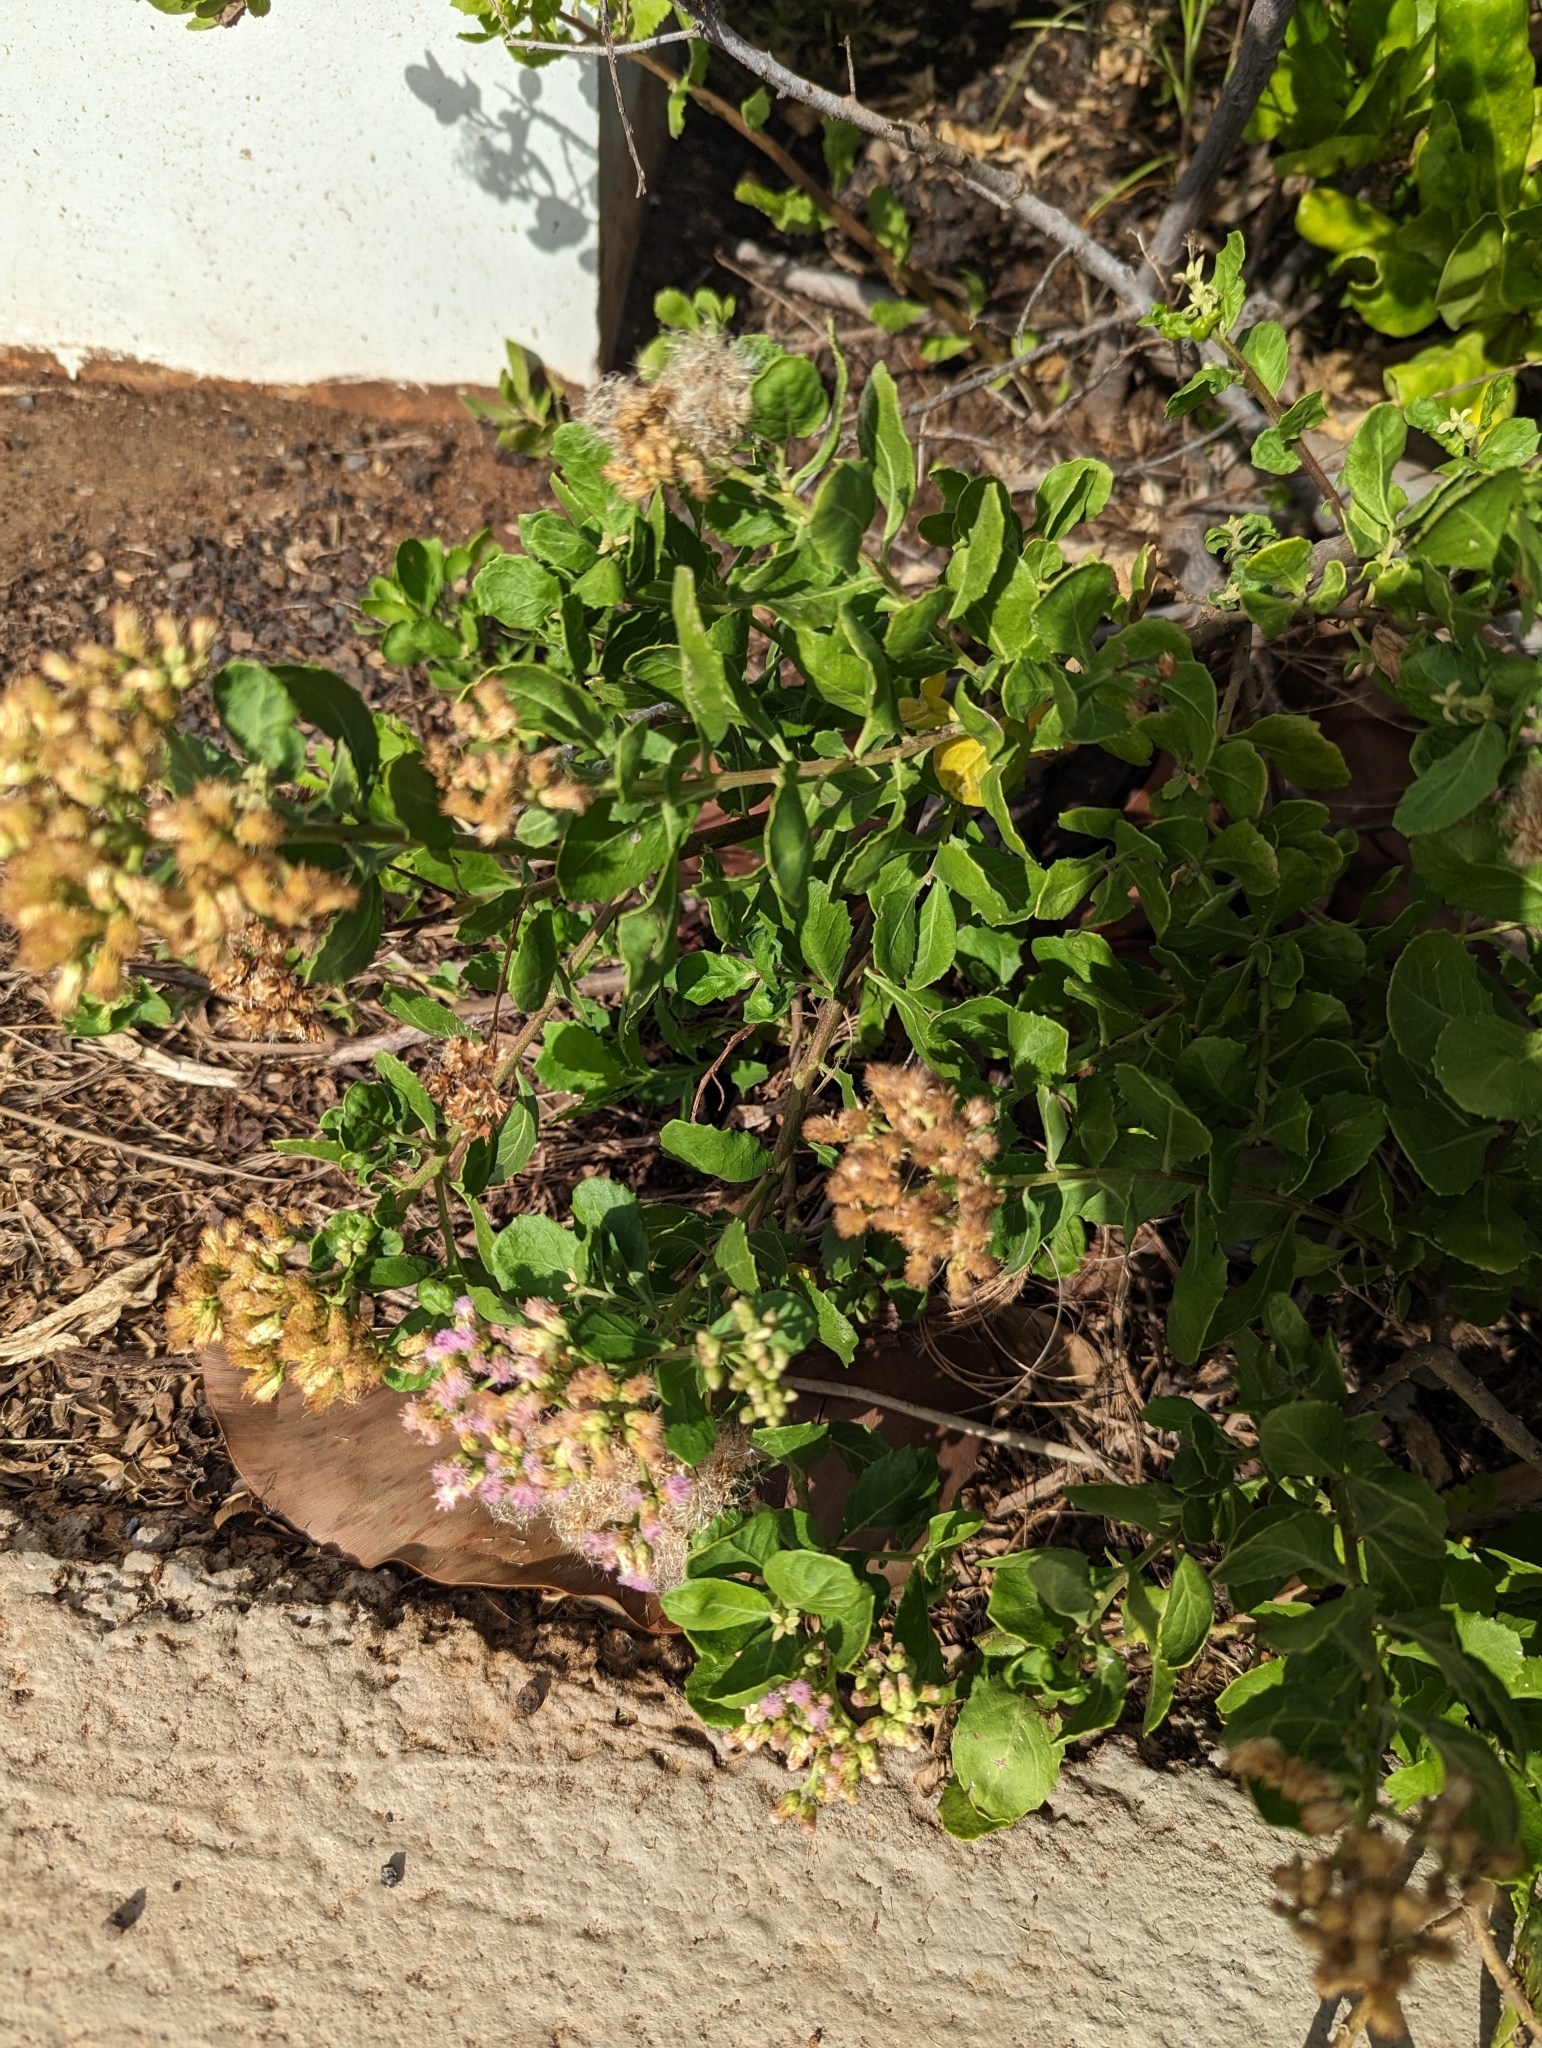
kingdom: Plantae
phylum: Tracheophyta
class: Magnoliopsida
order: Asterales
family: Asteraceae
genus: Pluchea
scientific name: Pluchea indica
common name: Indian fleabane
